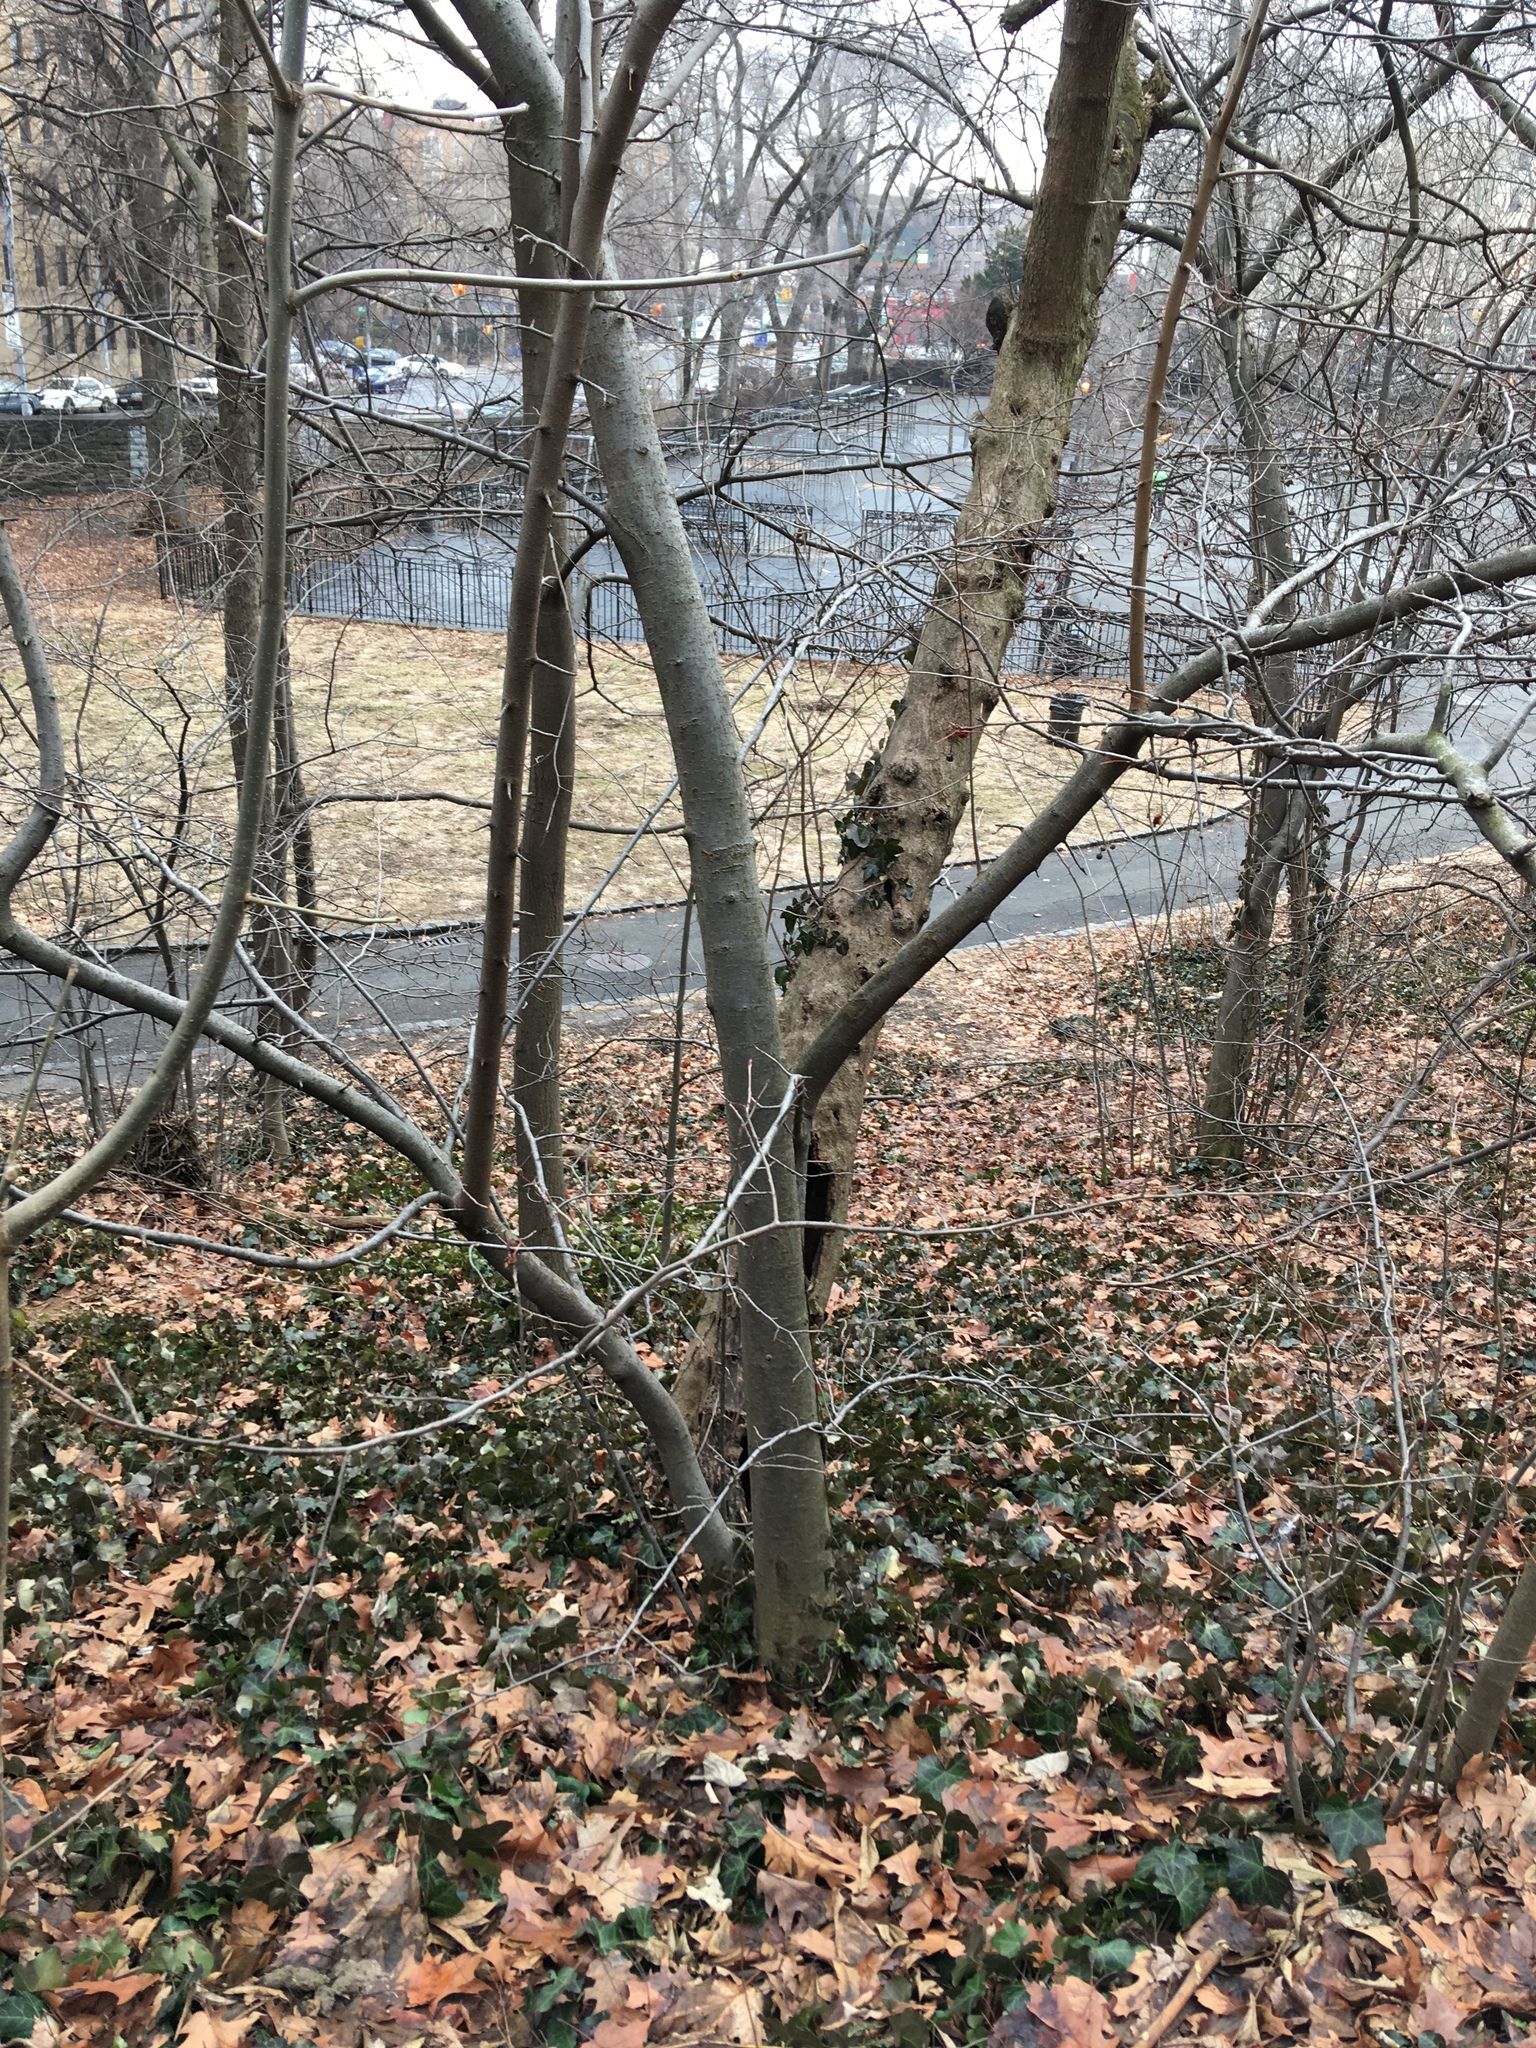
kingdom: Plantae
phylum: Tracheophyta
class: Magnoliopsida
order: Apiales
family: Araliaceae
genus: Hedera
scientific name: Hedera helix
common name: Ivy
